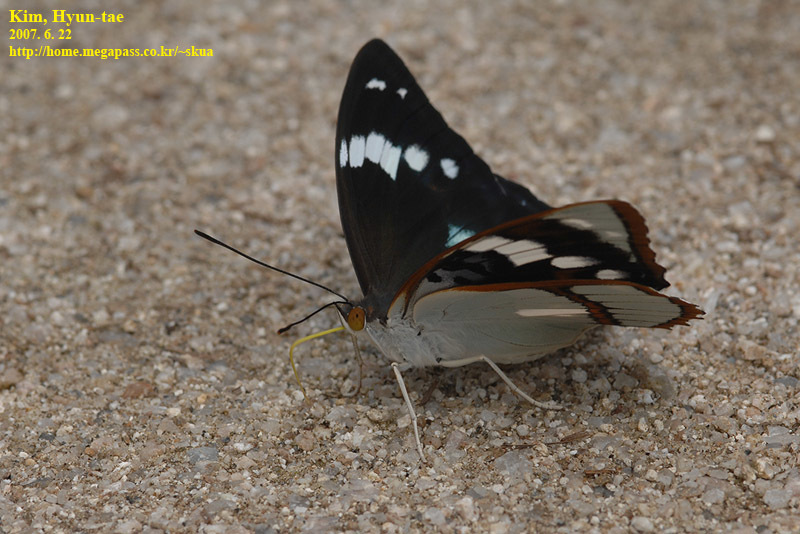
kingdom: Animalia
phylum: Arthropoda
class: Insecta
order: Lepidoptera
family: Nymphalidae
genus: Apatura
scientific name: Apatura Mimathyma schrencki
